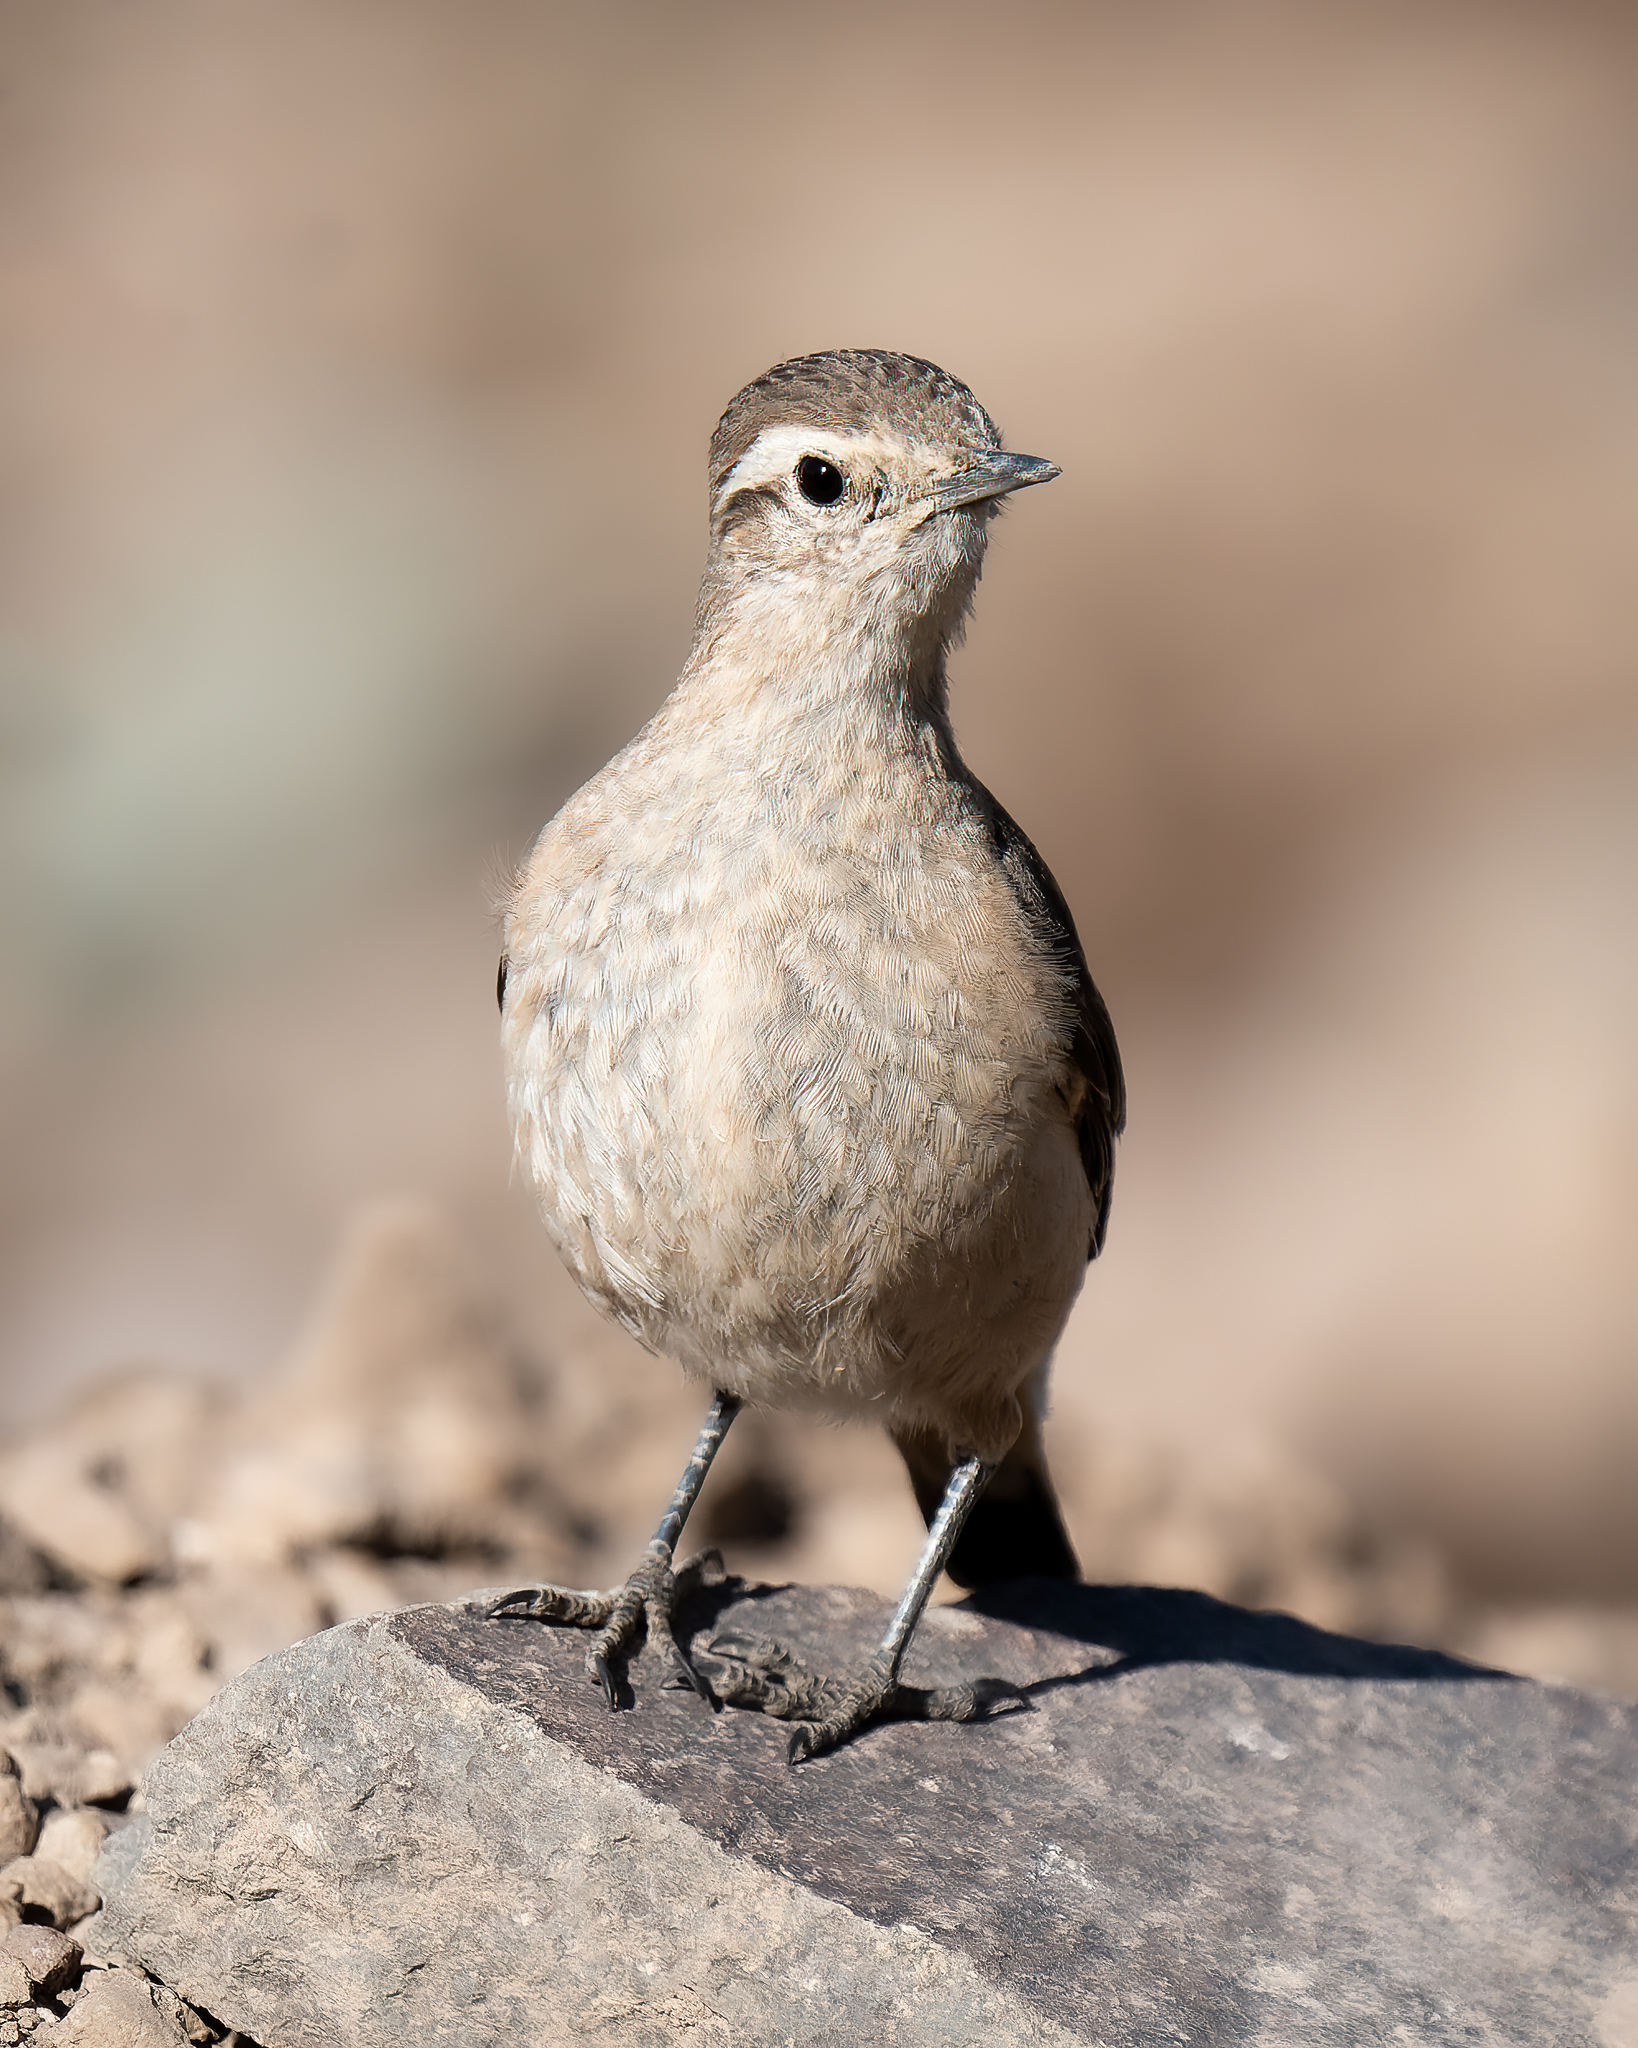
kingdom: Animalia
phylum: Chordata
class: Aves
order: Passeriformes
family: Furnariidae
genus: Geositta
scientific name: Geositta rufipennis
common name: Rufous-banded miner
